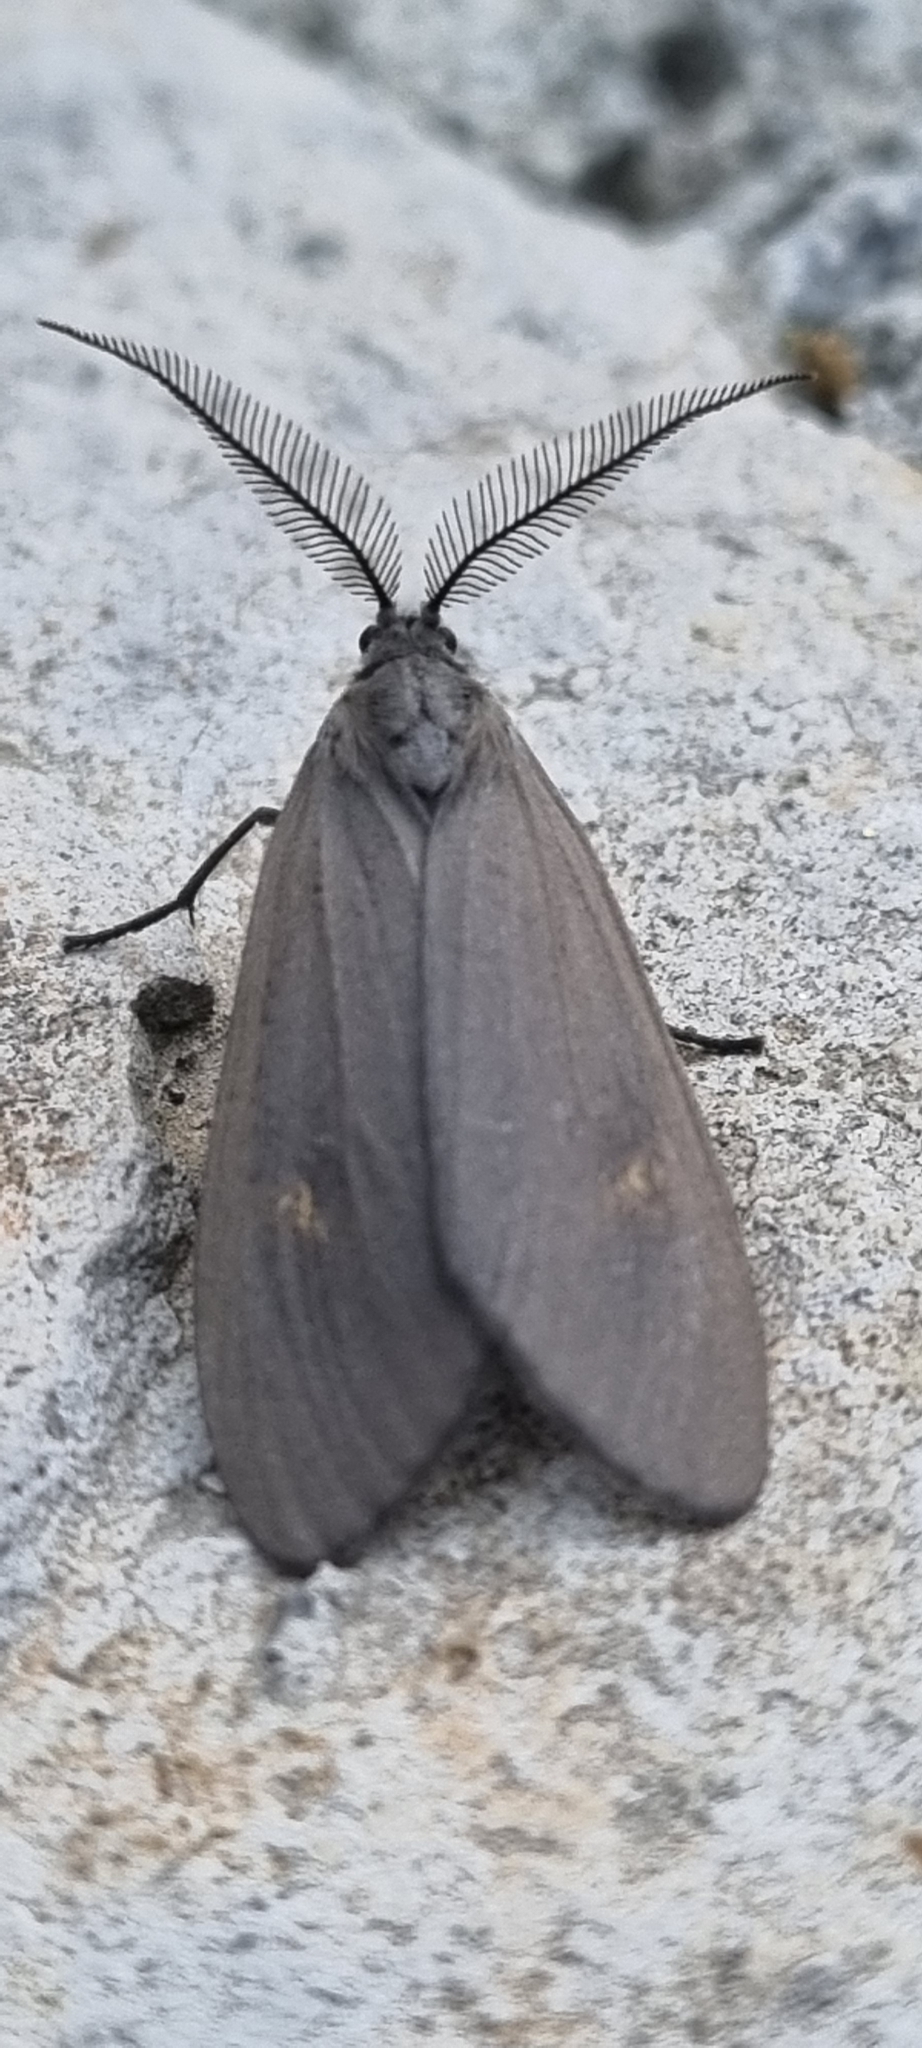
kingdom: Animalia
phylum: Arthropoda
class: Insecta
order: Lepidoptera
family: Notodontidae
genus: Phryganidia
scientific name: Phryganidia naxa
